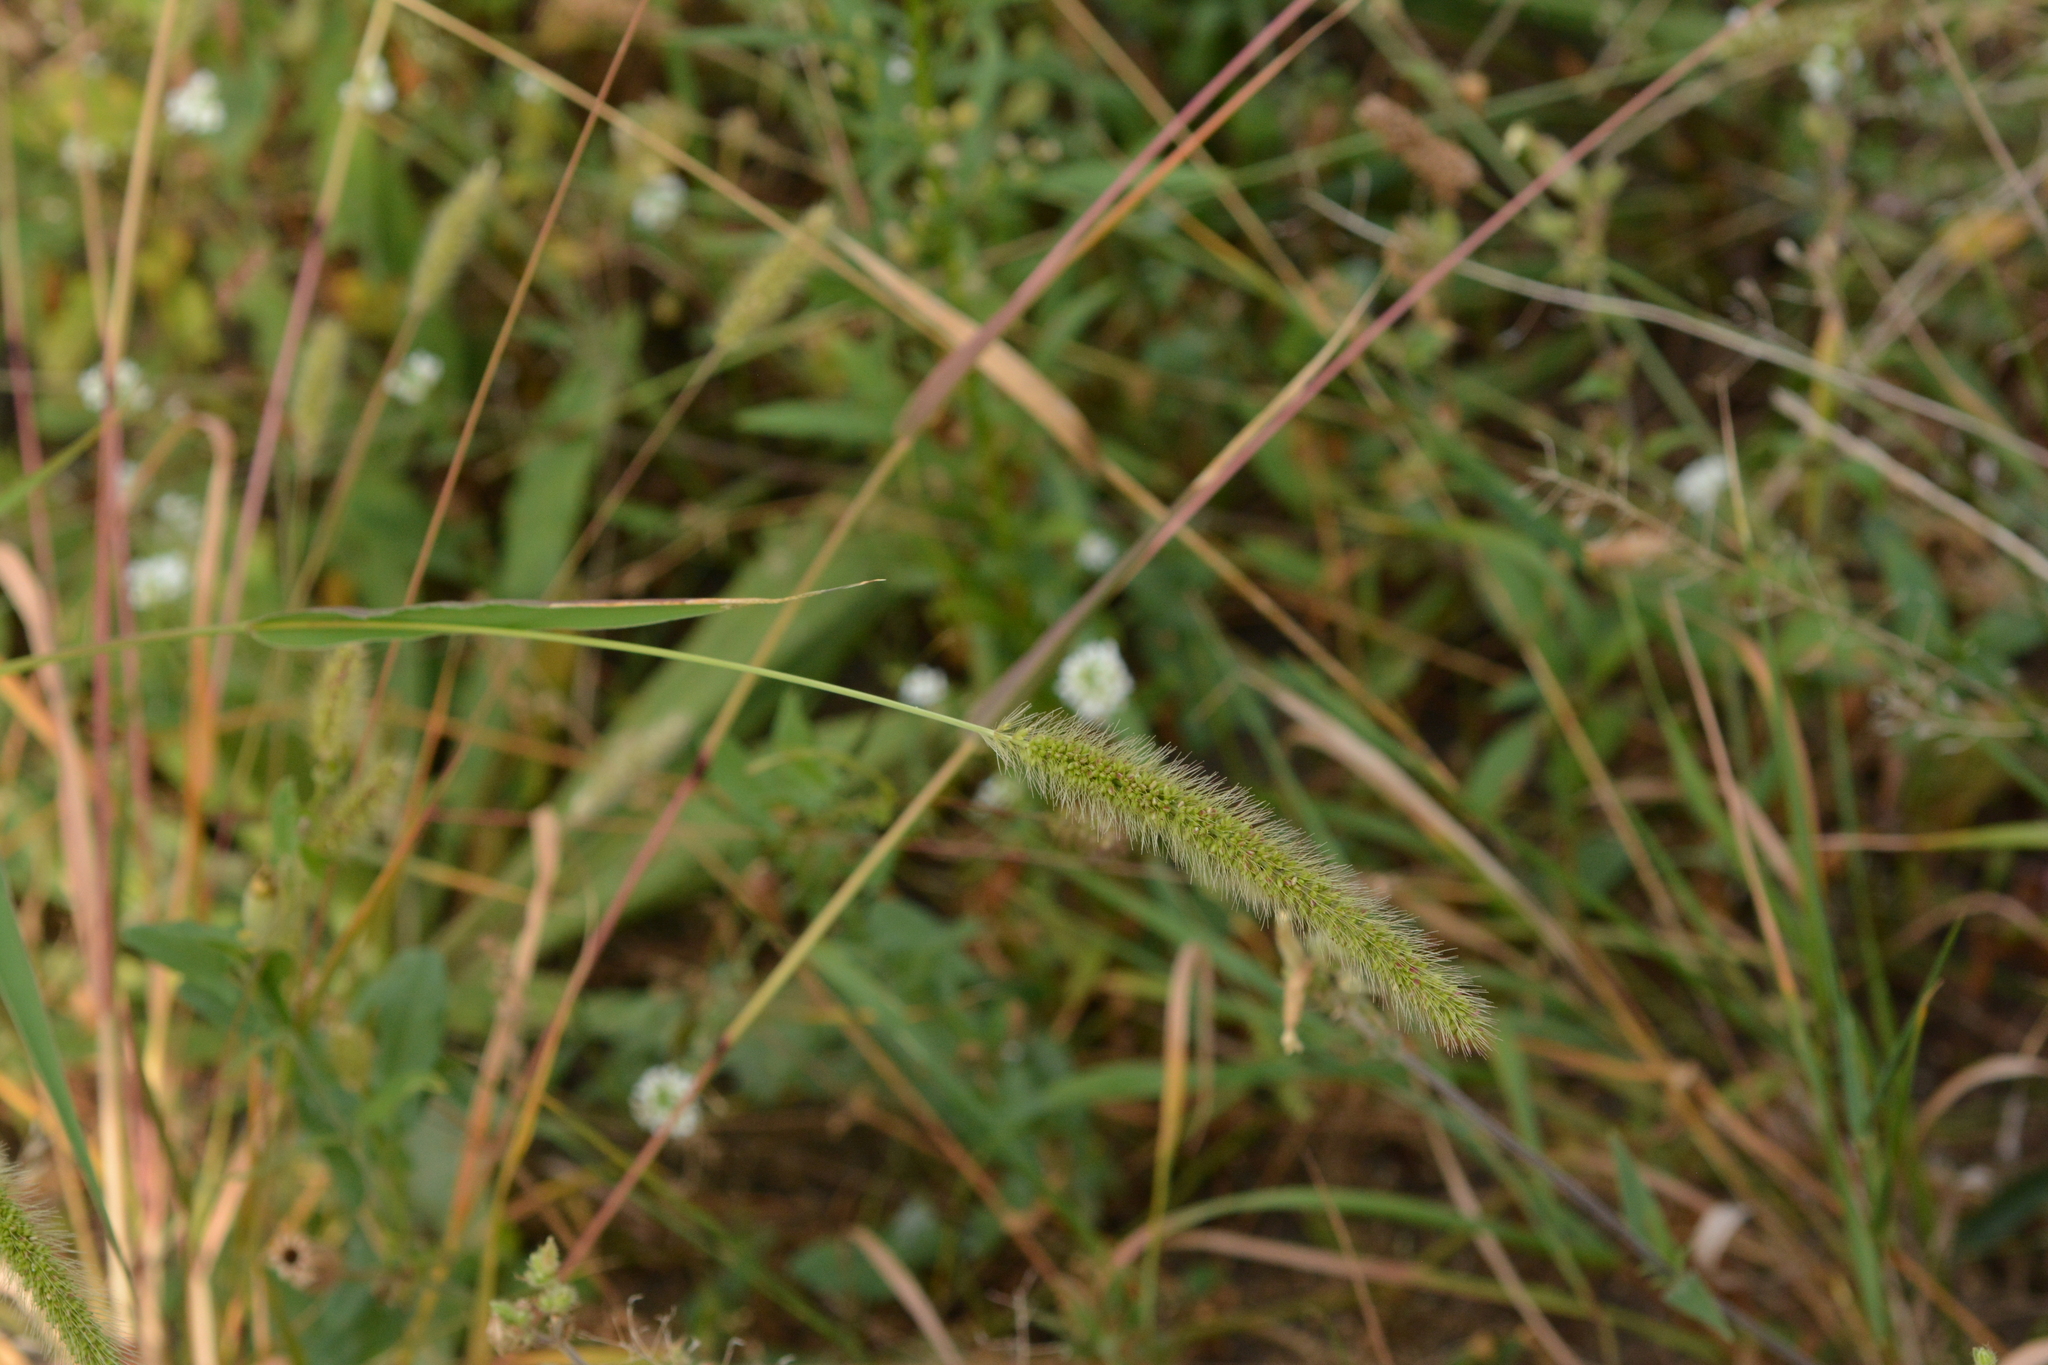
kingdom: Plantae
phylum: Tracheophyta
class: Liliopsida
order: Poales
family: Poaceae
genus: Setaria
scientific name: Setaria viridis
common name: Green bristlegrass
